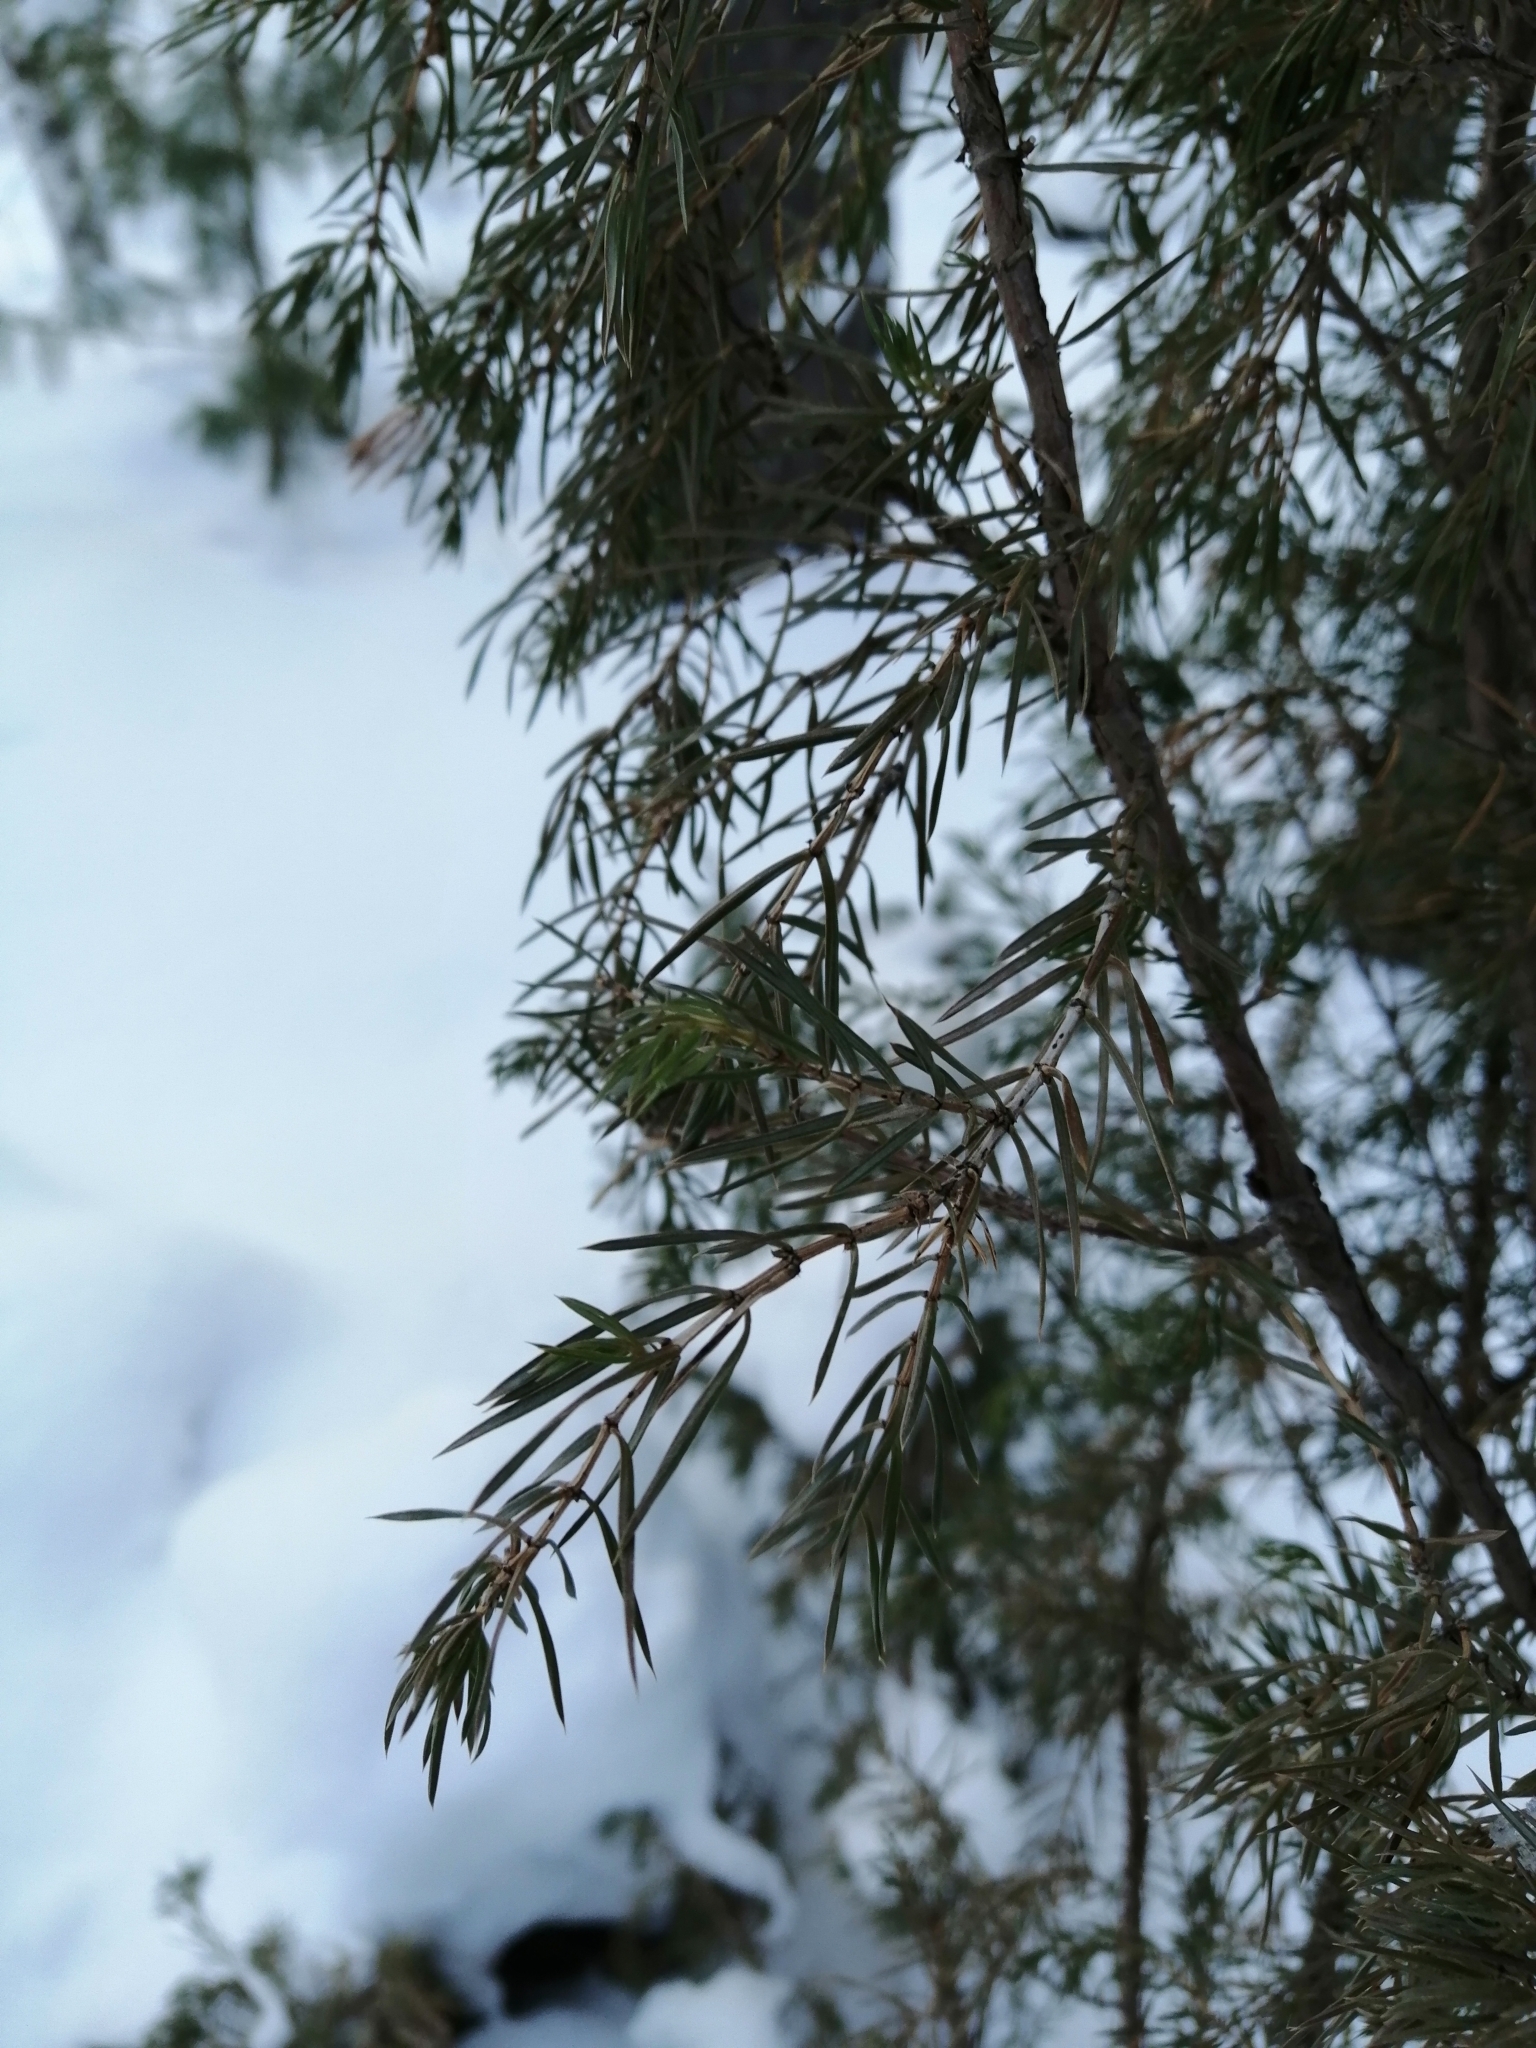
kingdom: Plantae
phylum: Tracheophyta
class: Pinopsida
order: Pinales
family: Cupressaceae
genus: Juniperus
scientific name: Juniperus communis
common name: Common juniper
